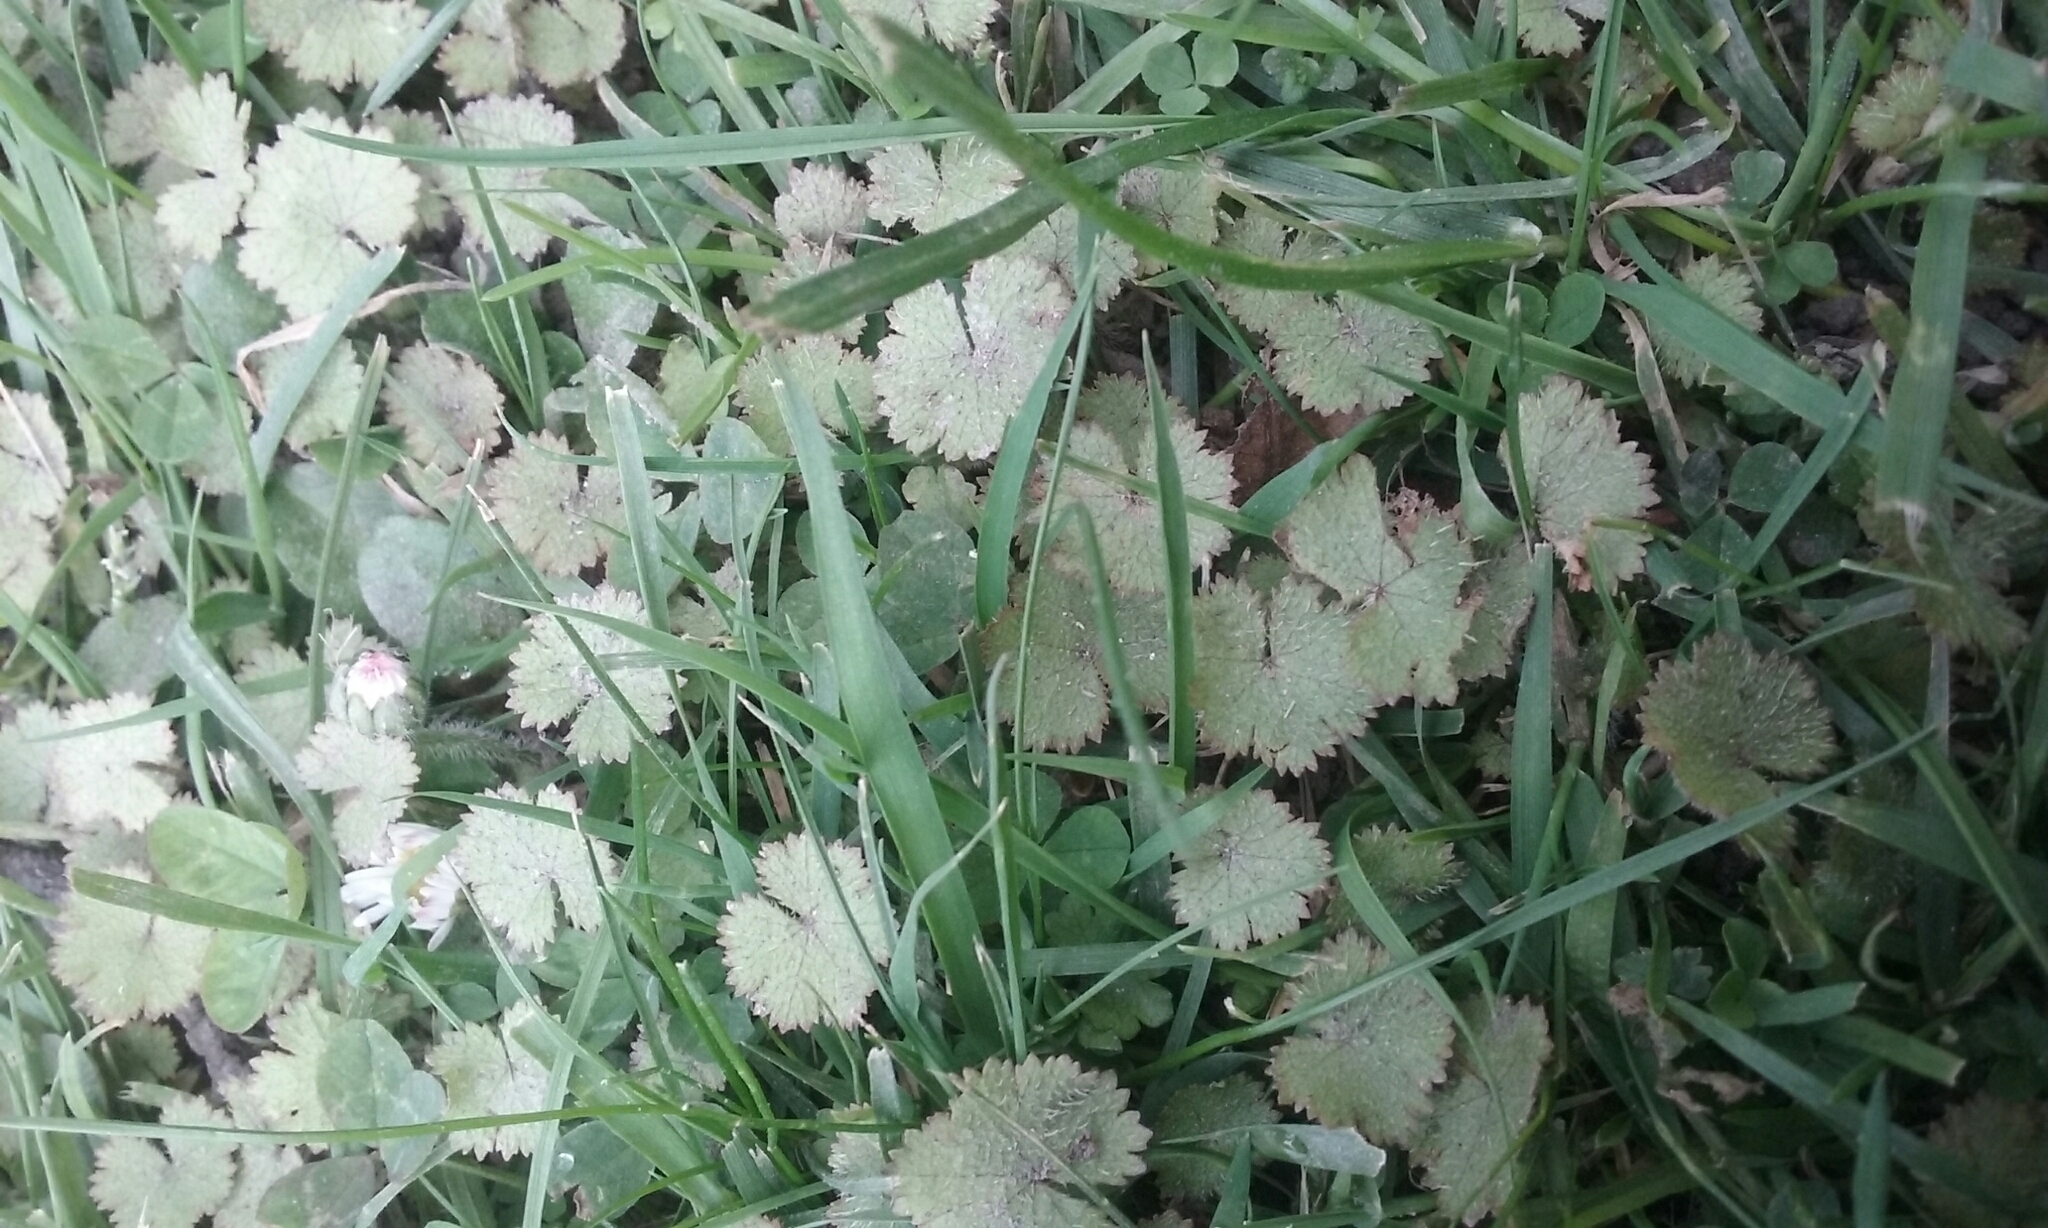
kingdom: Plantae
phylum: Tracheophyta
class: Magnoliopsida
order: Apiales
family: Araliaceae
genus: Hydrocotyle
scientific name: Hydrocotyle moschata
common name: Hairy pennywort
